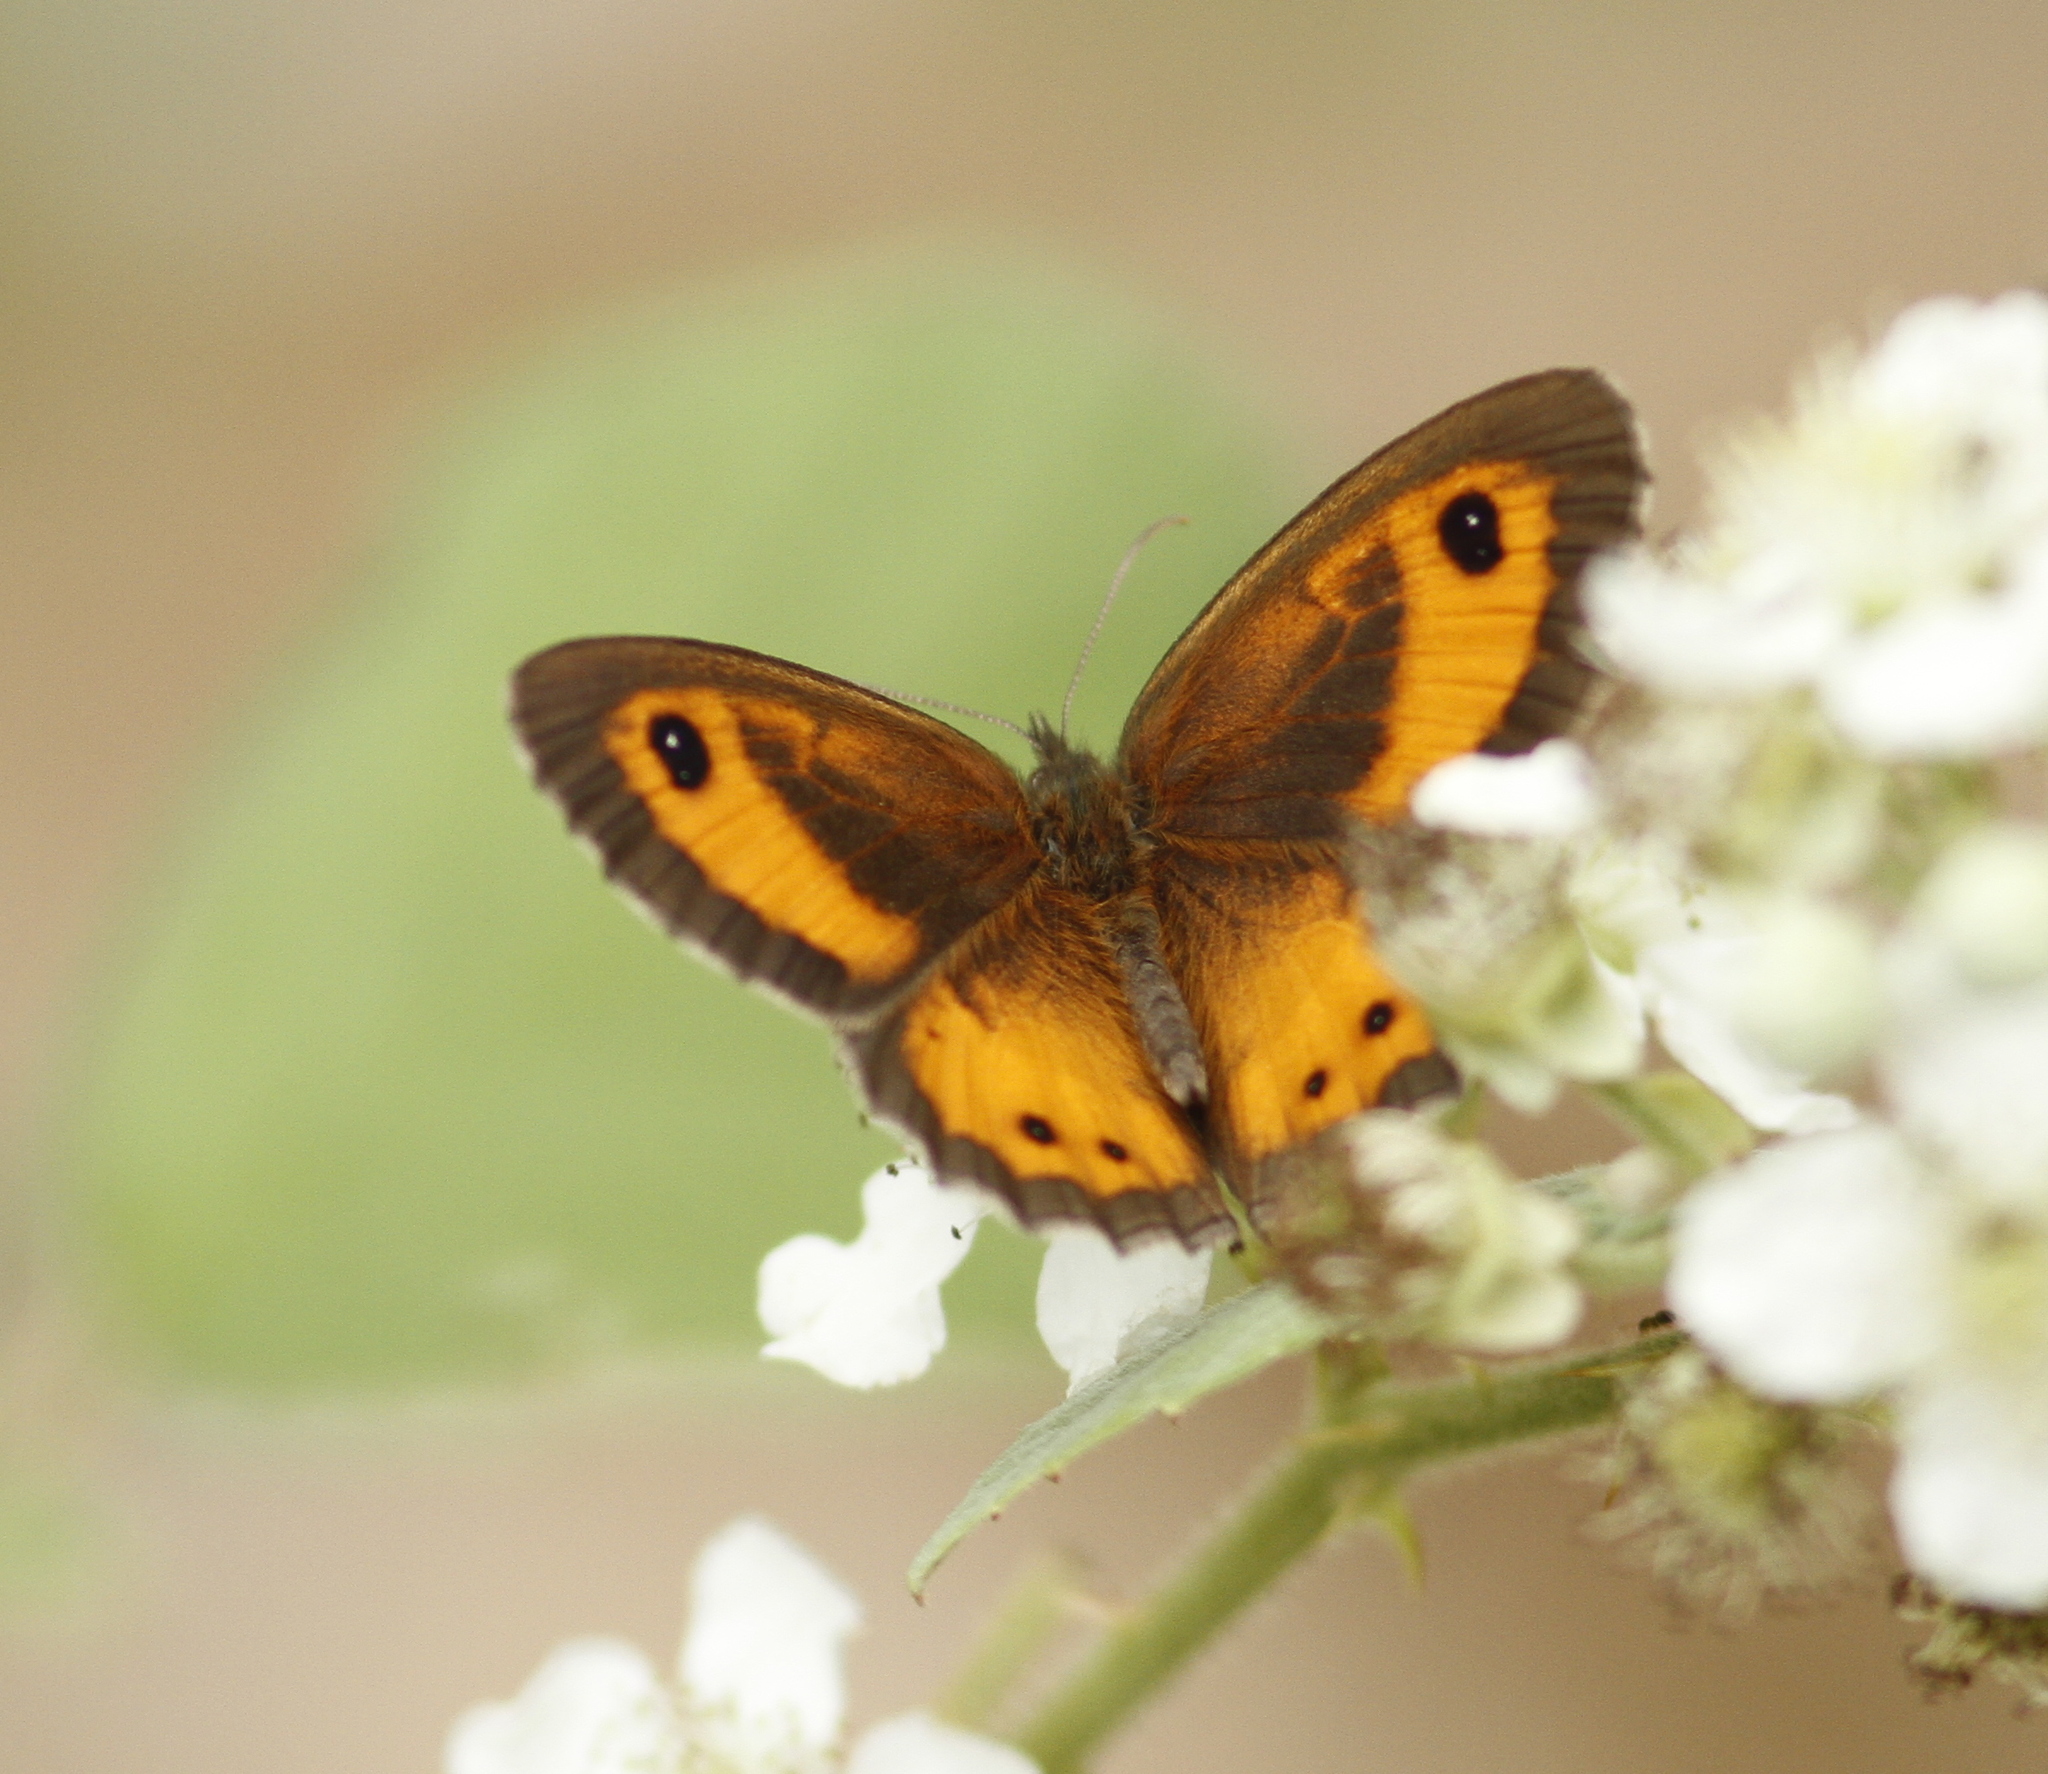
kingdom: Animalia
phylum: Arthropoda
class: Insecta
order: Lepidoptera
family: Nymphalidae
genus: Pyronia
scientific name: Pyronia bathseba
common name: Spanish gatekeeper
